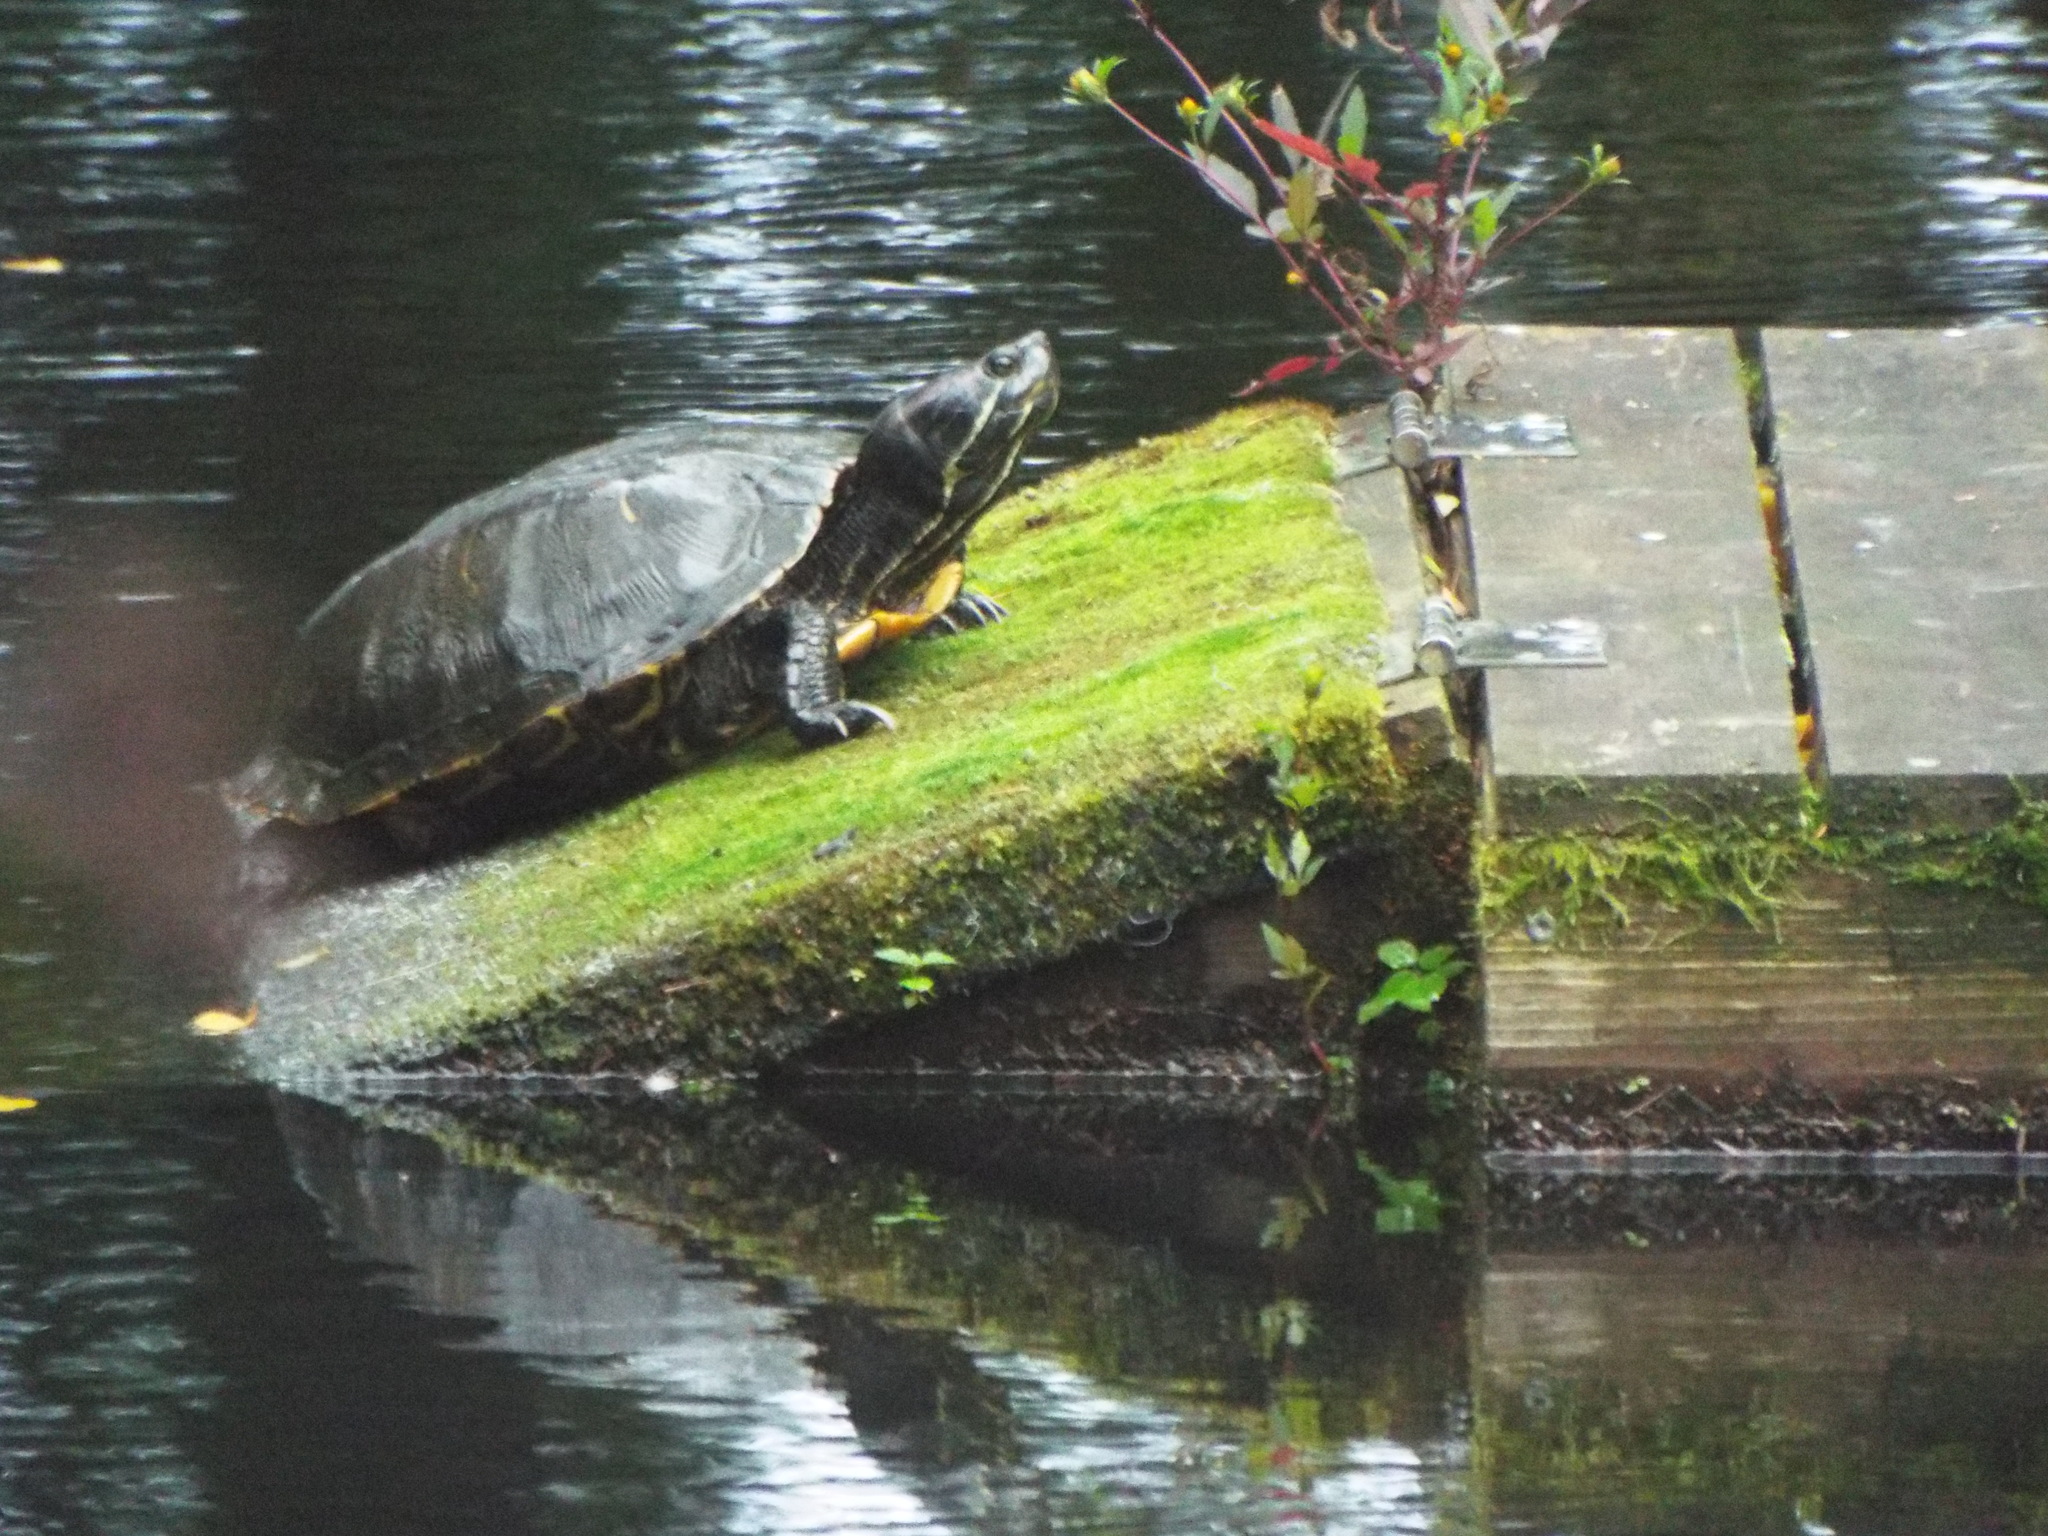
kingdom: Animalia
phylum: Chordata
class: Testudines
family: Emydidae
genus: Trachemys
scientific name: Trachemys scripta
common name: Slider
